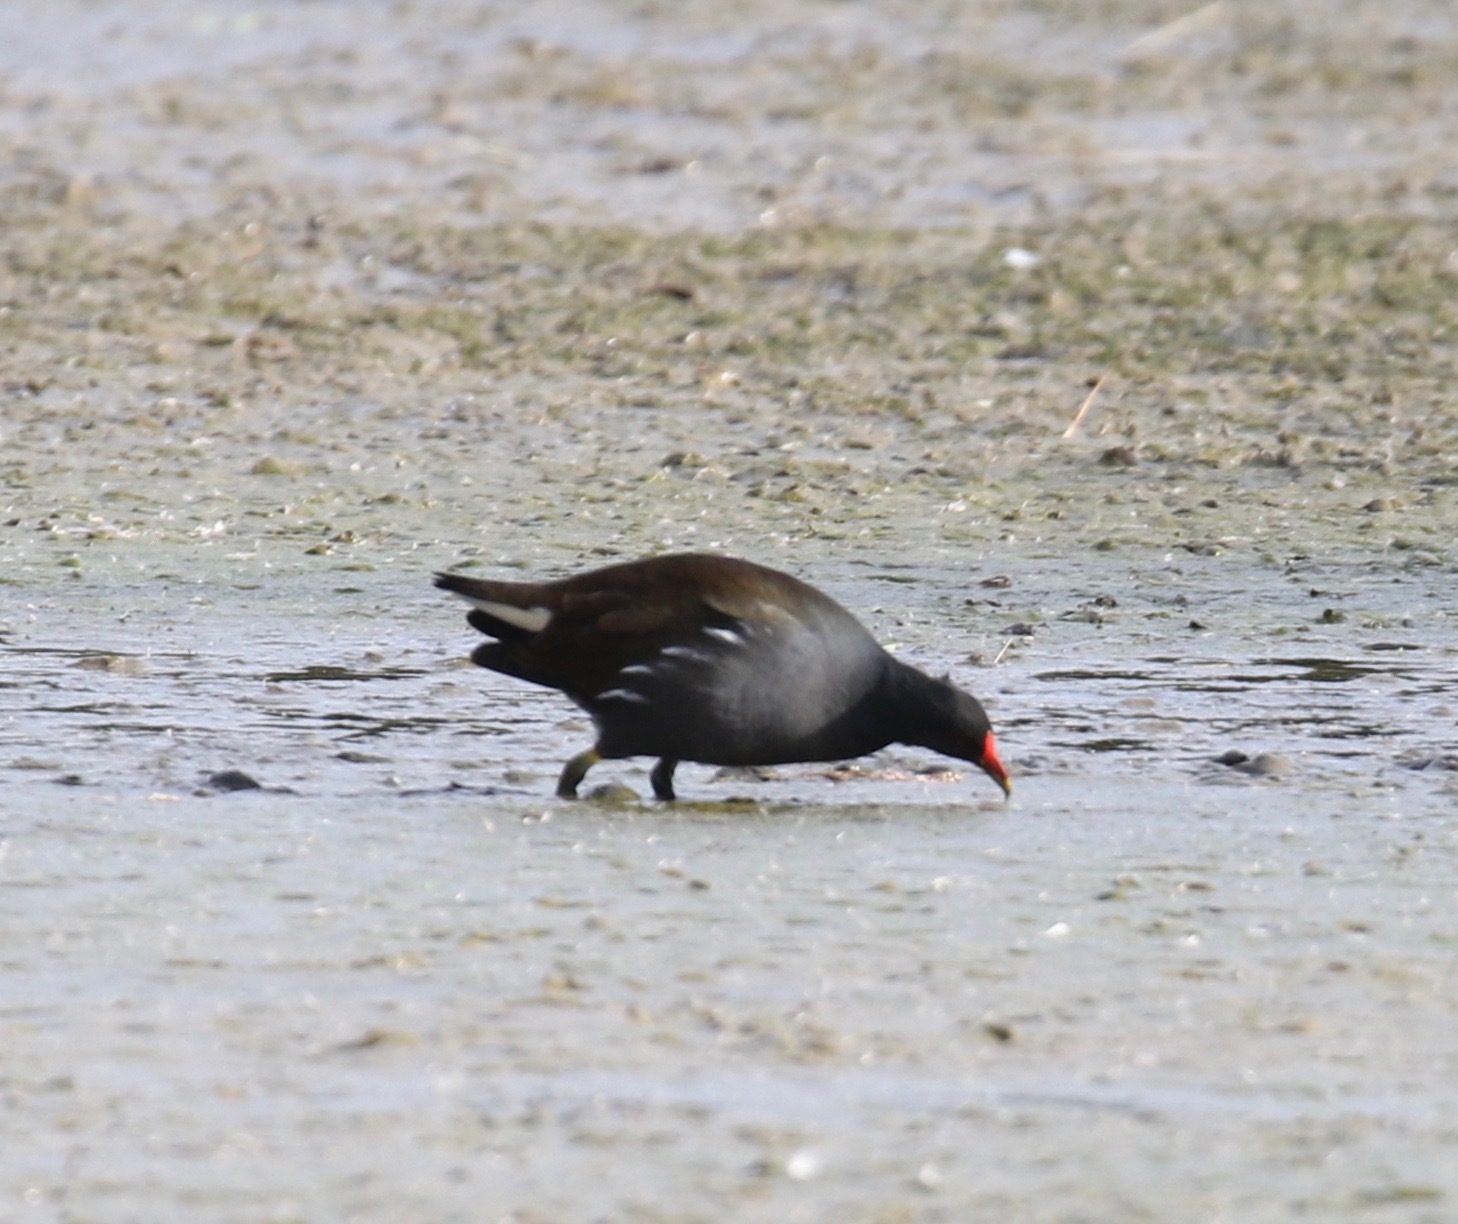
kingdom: Animalia
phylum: Chordata
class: Aves
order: Gruiformes
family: Rallidae
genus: Gallinula
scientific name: Gallinula chloropus
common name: Common moorhen
